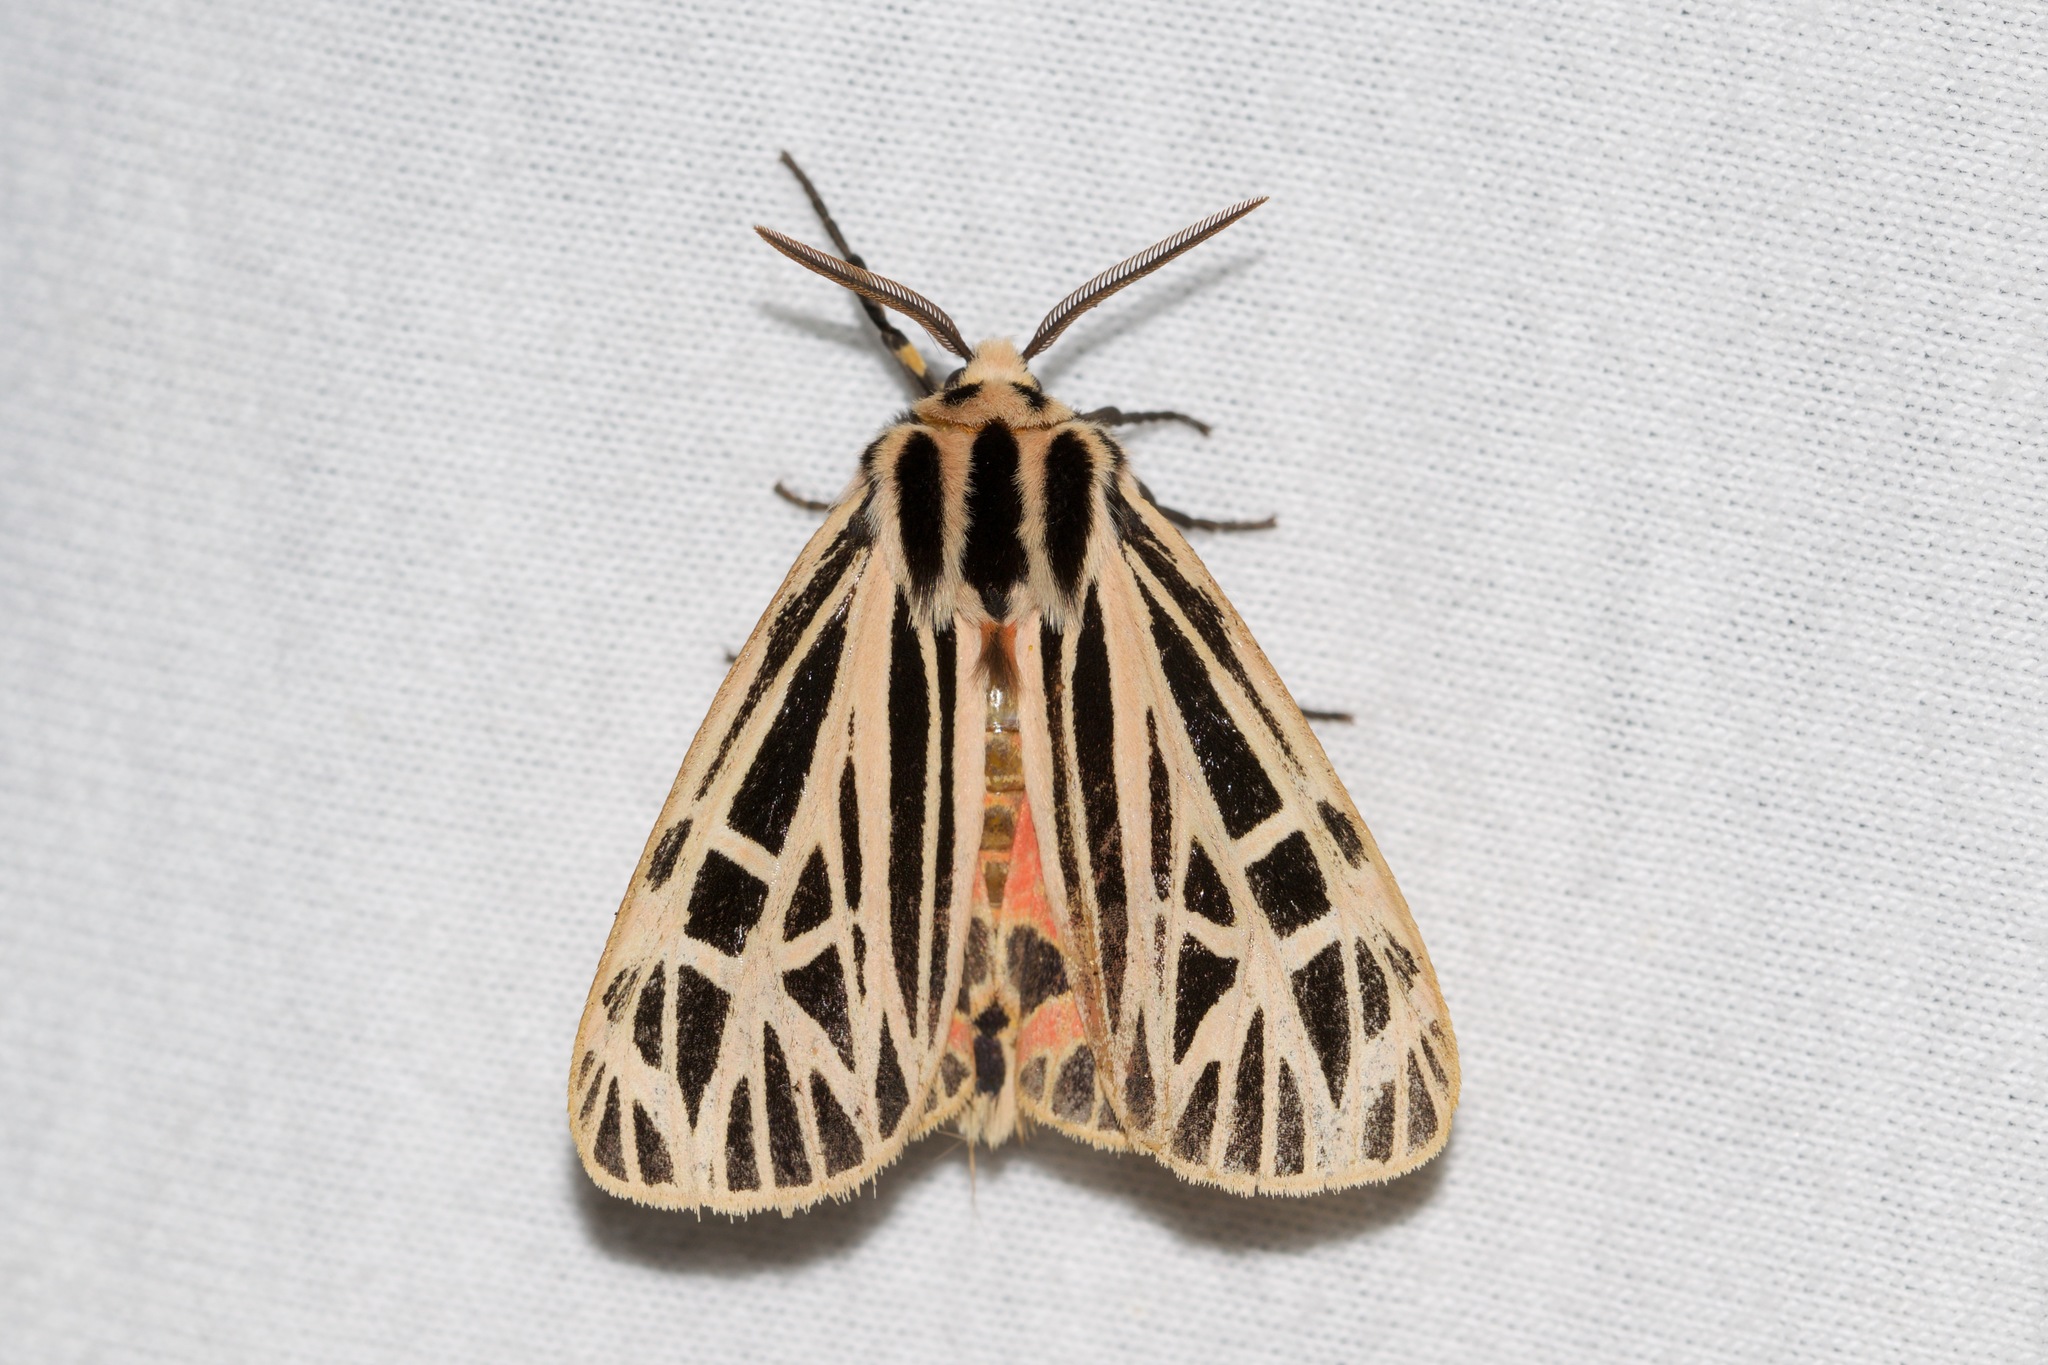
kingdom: Animalia
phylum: Arthropoda
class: Insecta
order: Lepidoptera
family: Erebidae
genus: Grammia
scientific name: Grammia virgo
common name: Virgin tiger moth
